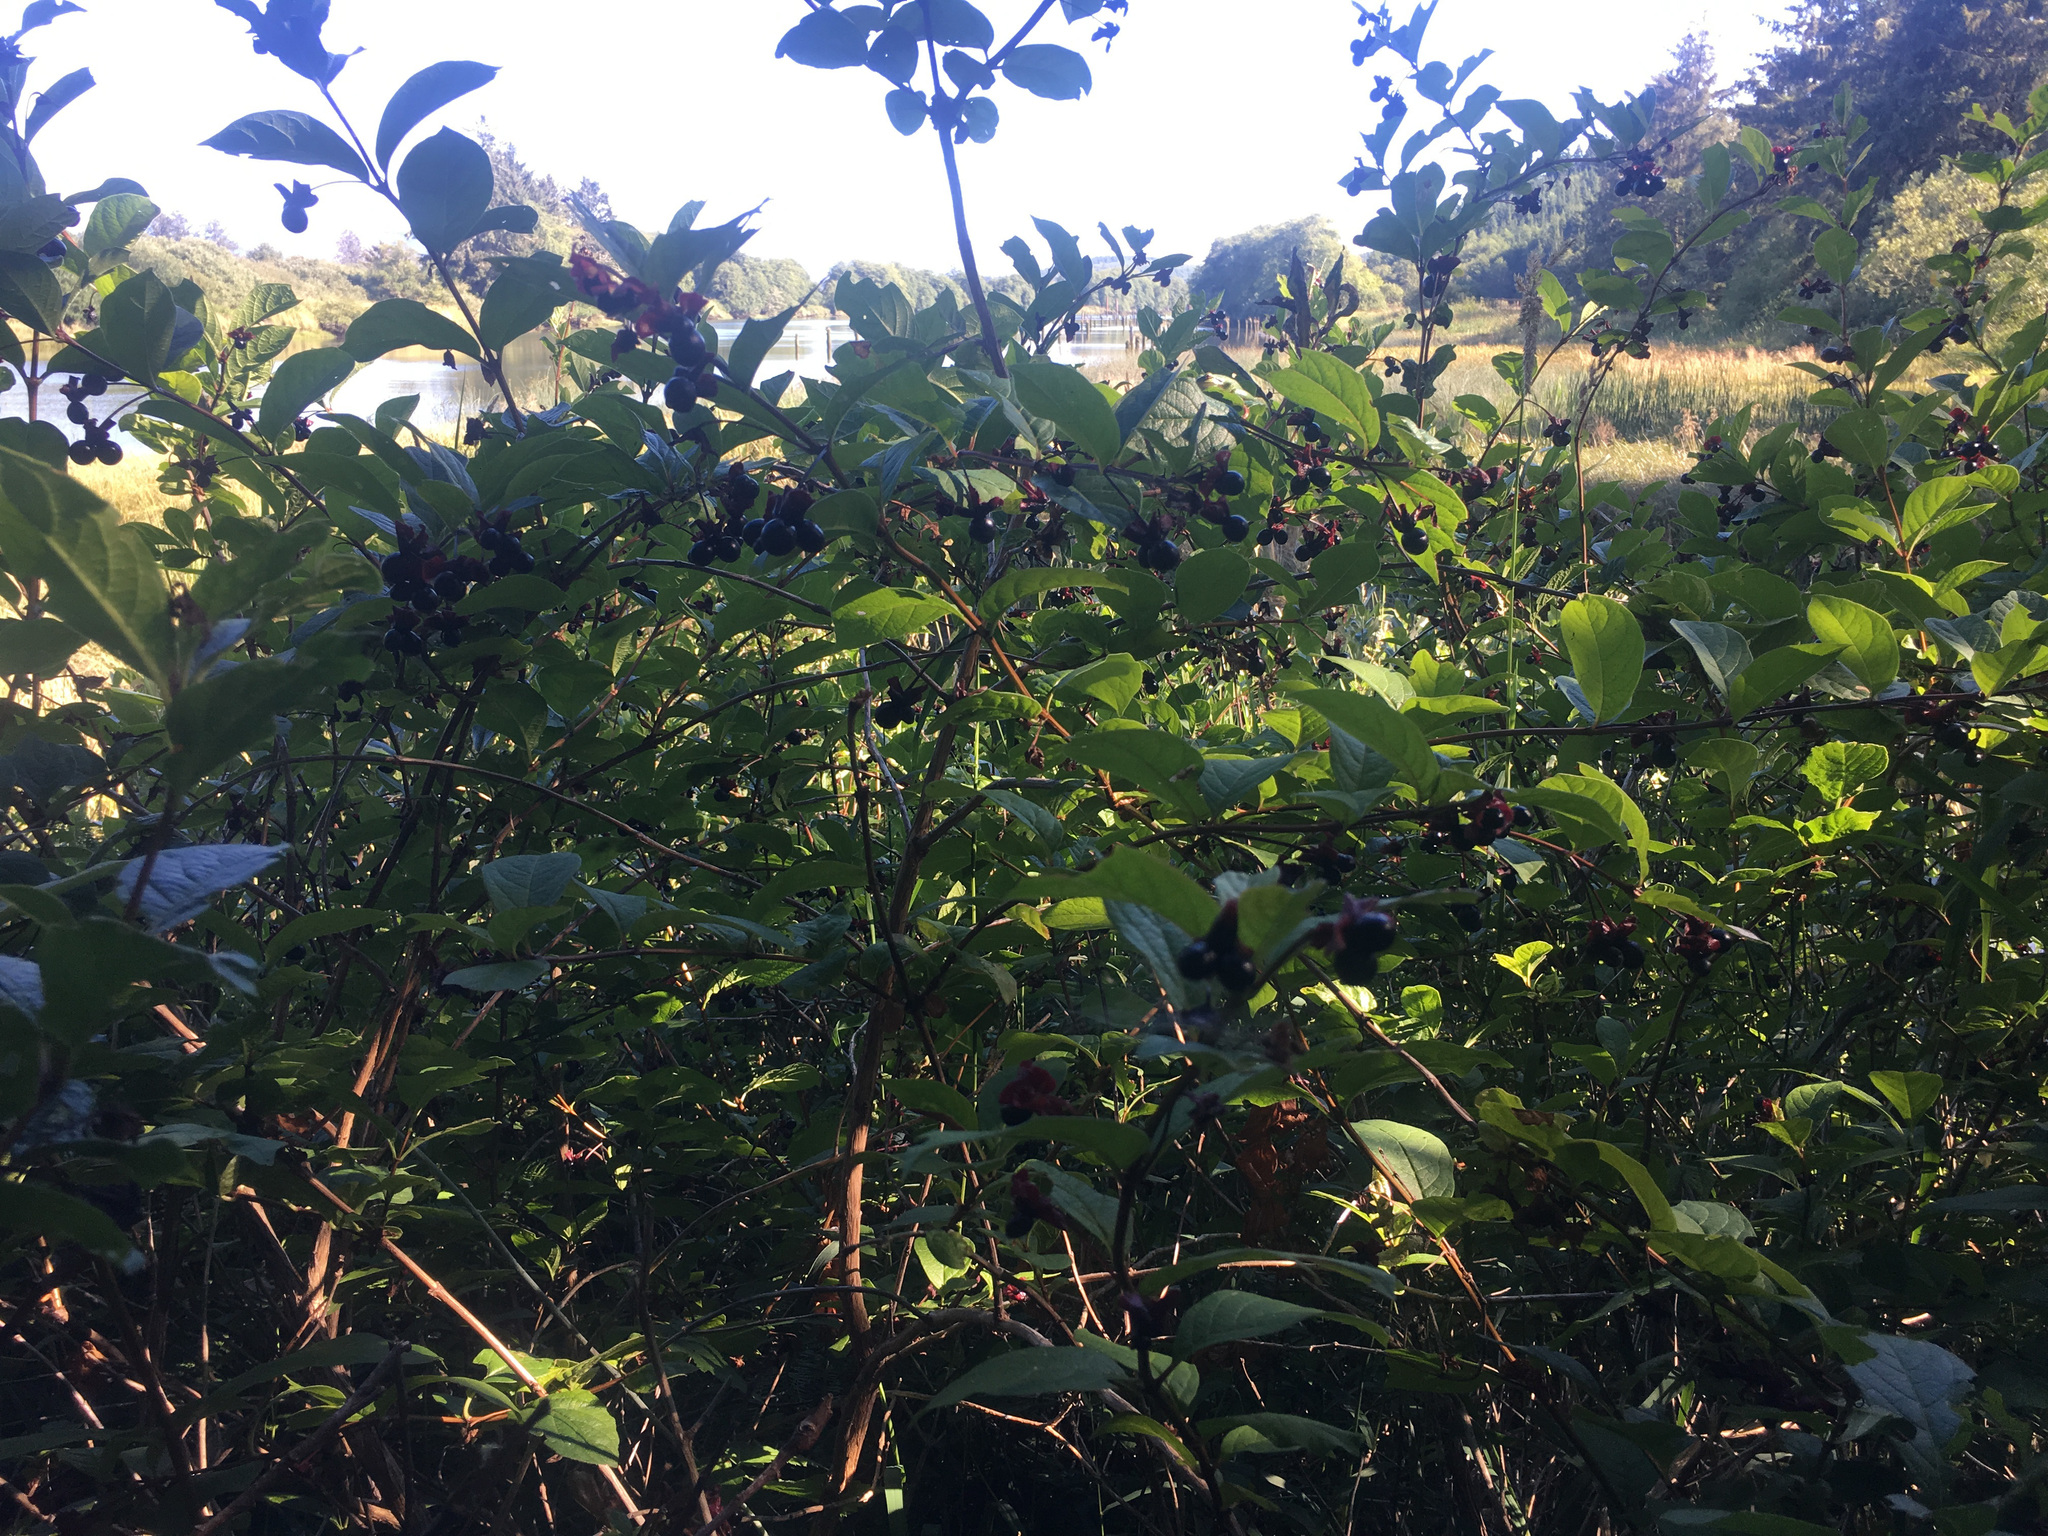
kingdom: Plantae
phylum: Tracheophyta
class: Magnoliopsida
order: Dipsacales
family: Caprifoliaceae
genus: Lonicera
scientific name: Lonicera involucrata
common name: Californian honeysuckle
